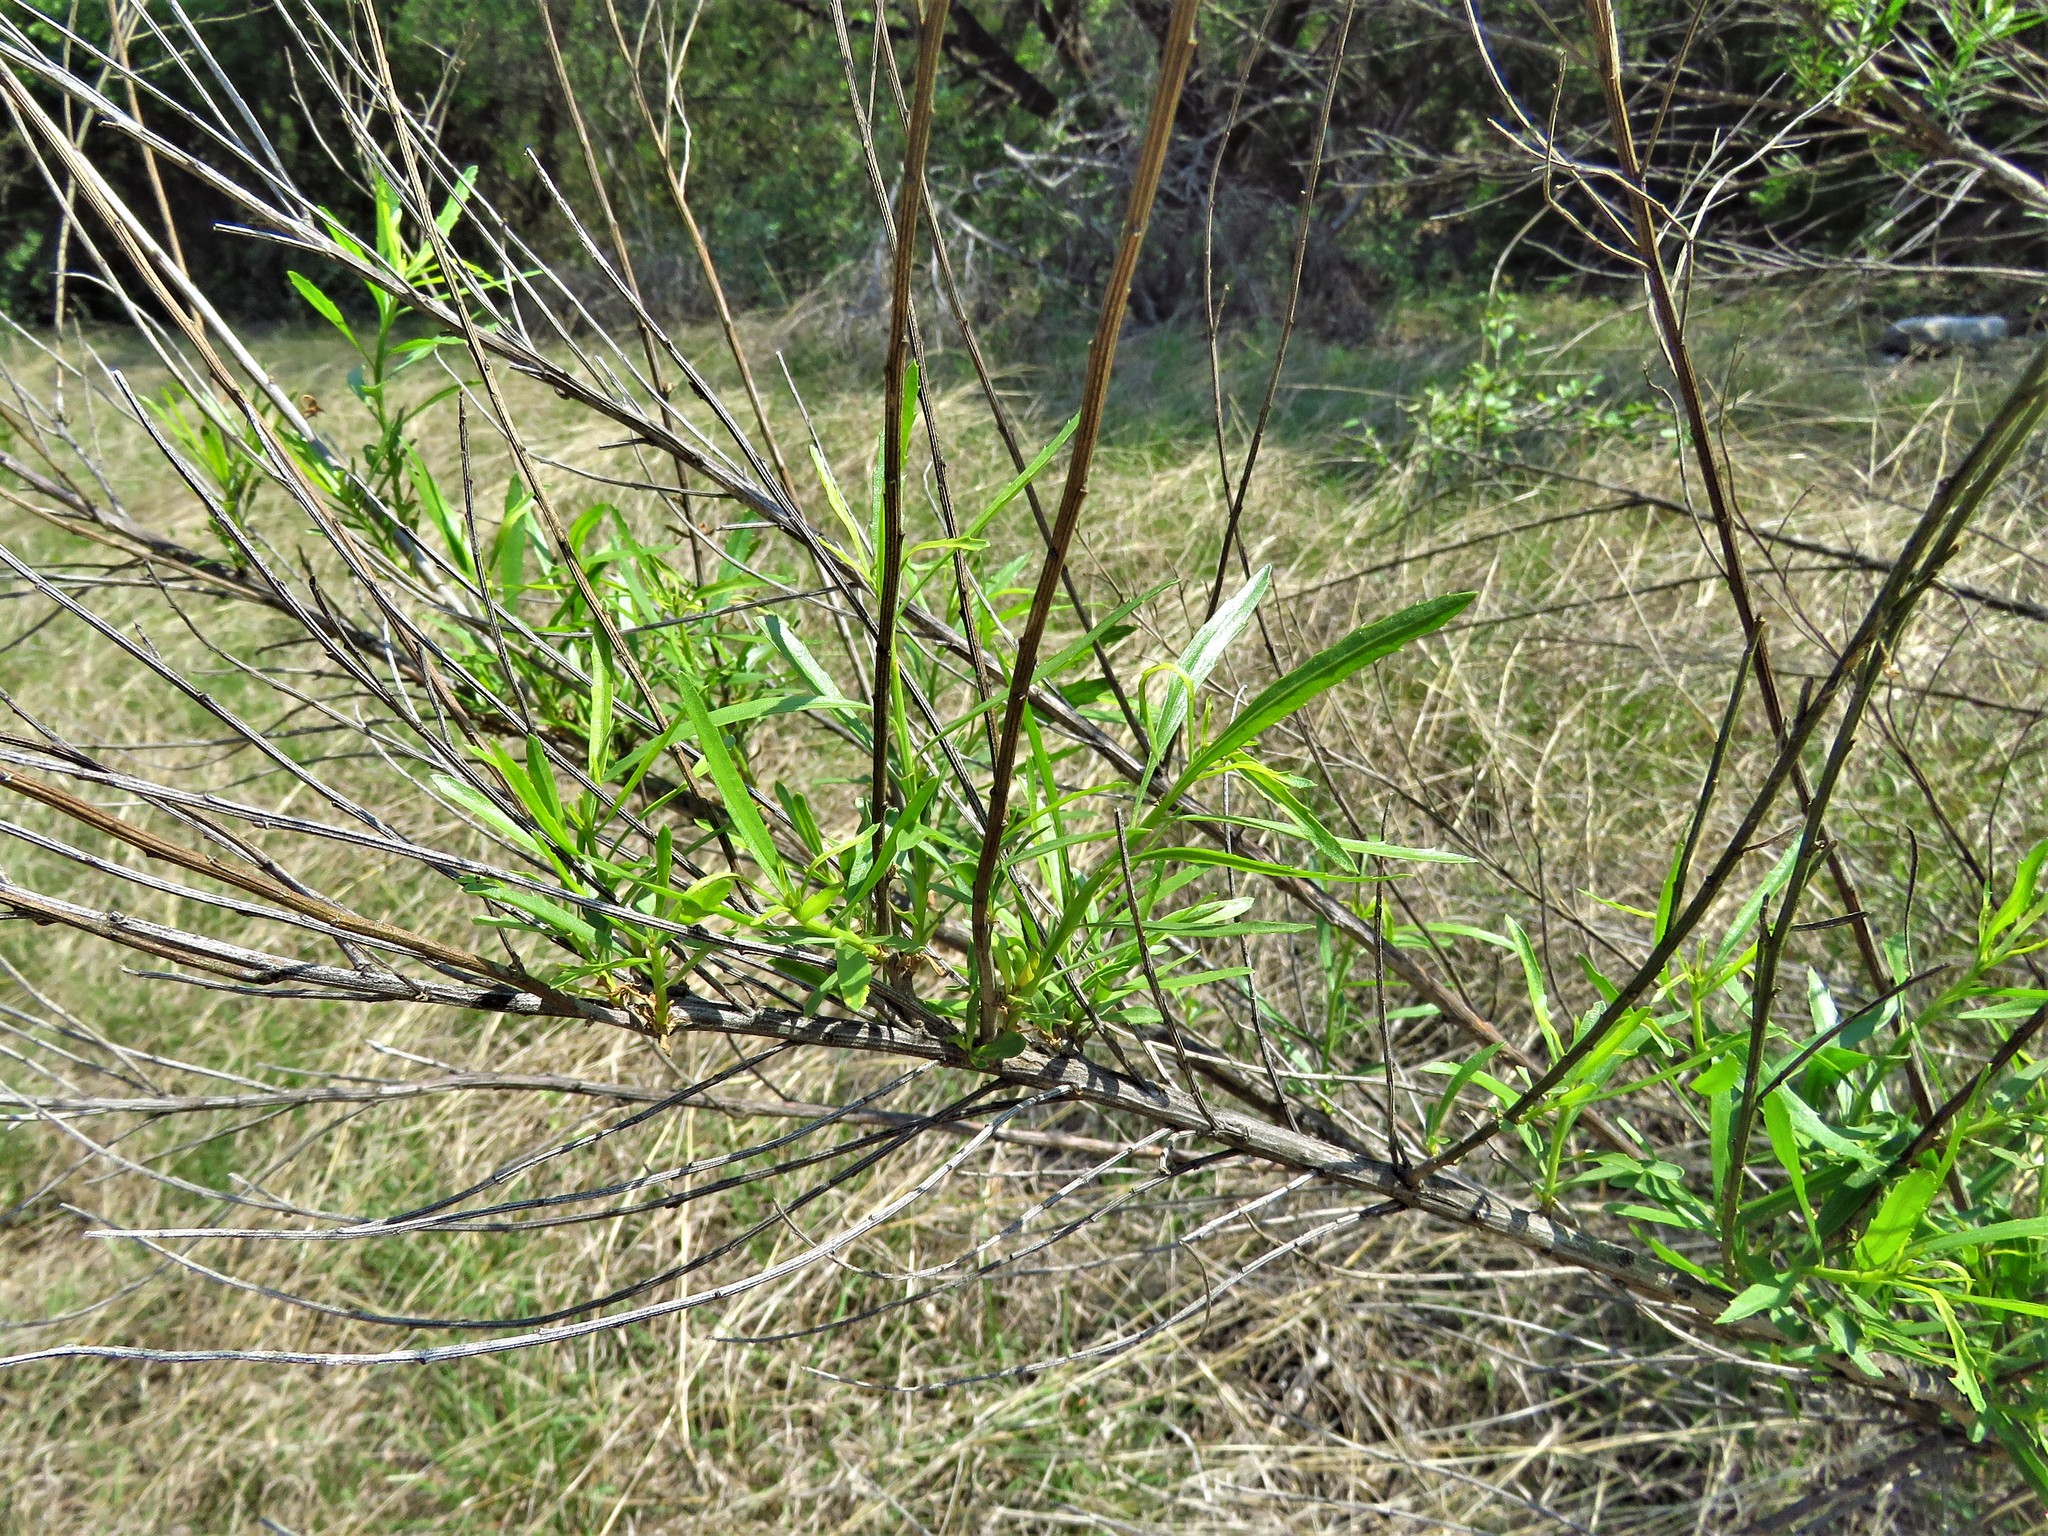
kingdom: Plantae
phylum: Tracheophyta
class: Magnoliopsida
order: Asterales
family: Asteraceae
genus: Baccharis
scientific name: Baccharis neglecta
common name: Roosevelt-weed
